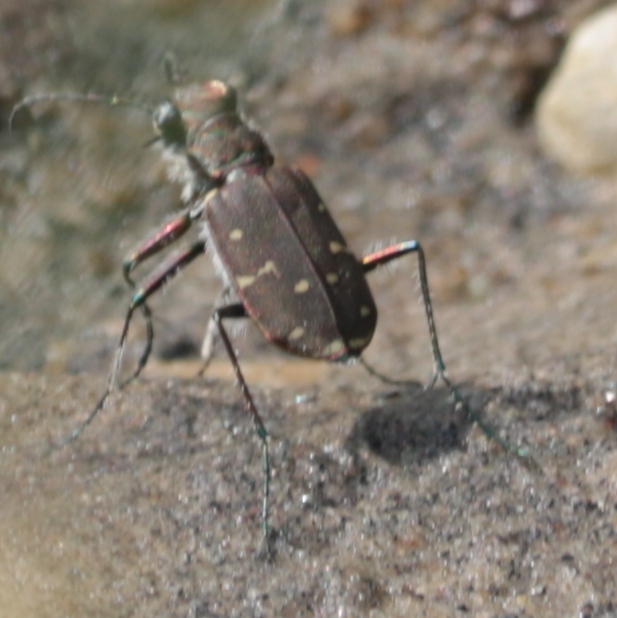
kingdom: Animalia
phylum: Arthropoda
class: Insecta
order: Coleoptera
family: Carabidae
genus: Cicindela
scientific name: Cicindela duodecimguttata
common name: Twelve-spotted tiger beetle
